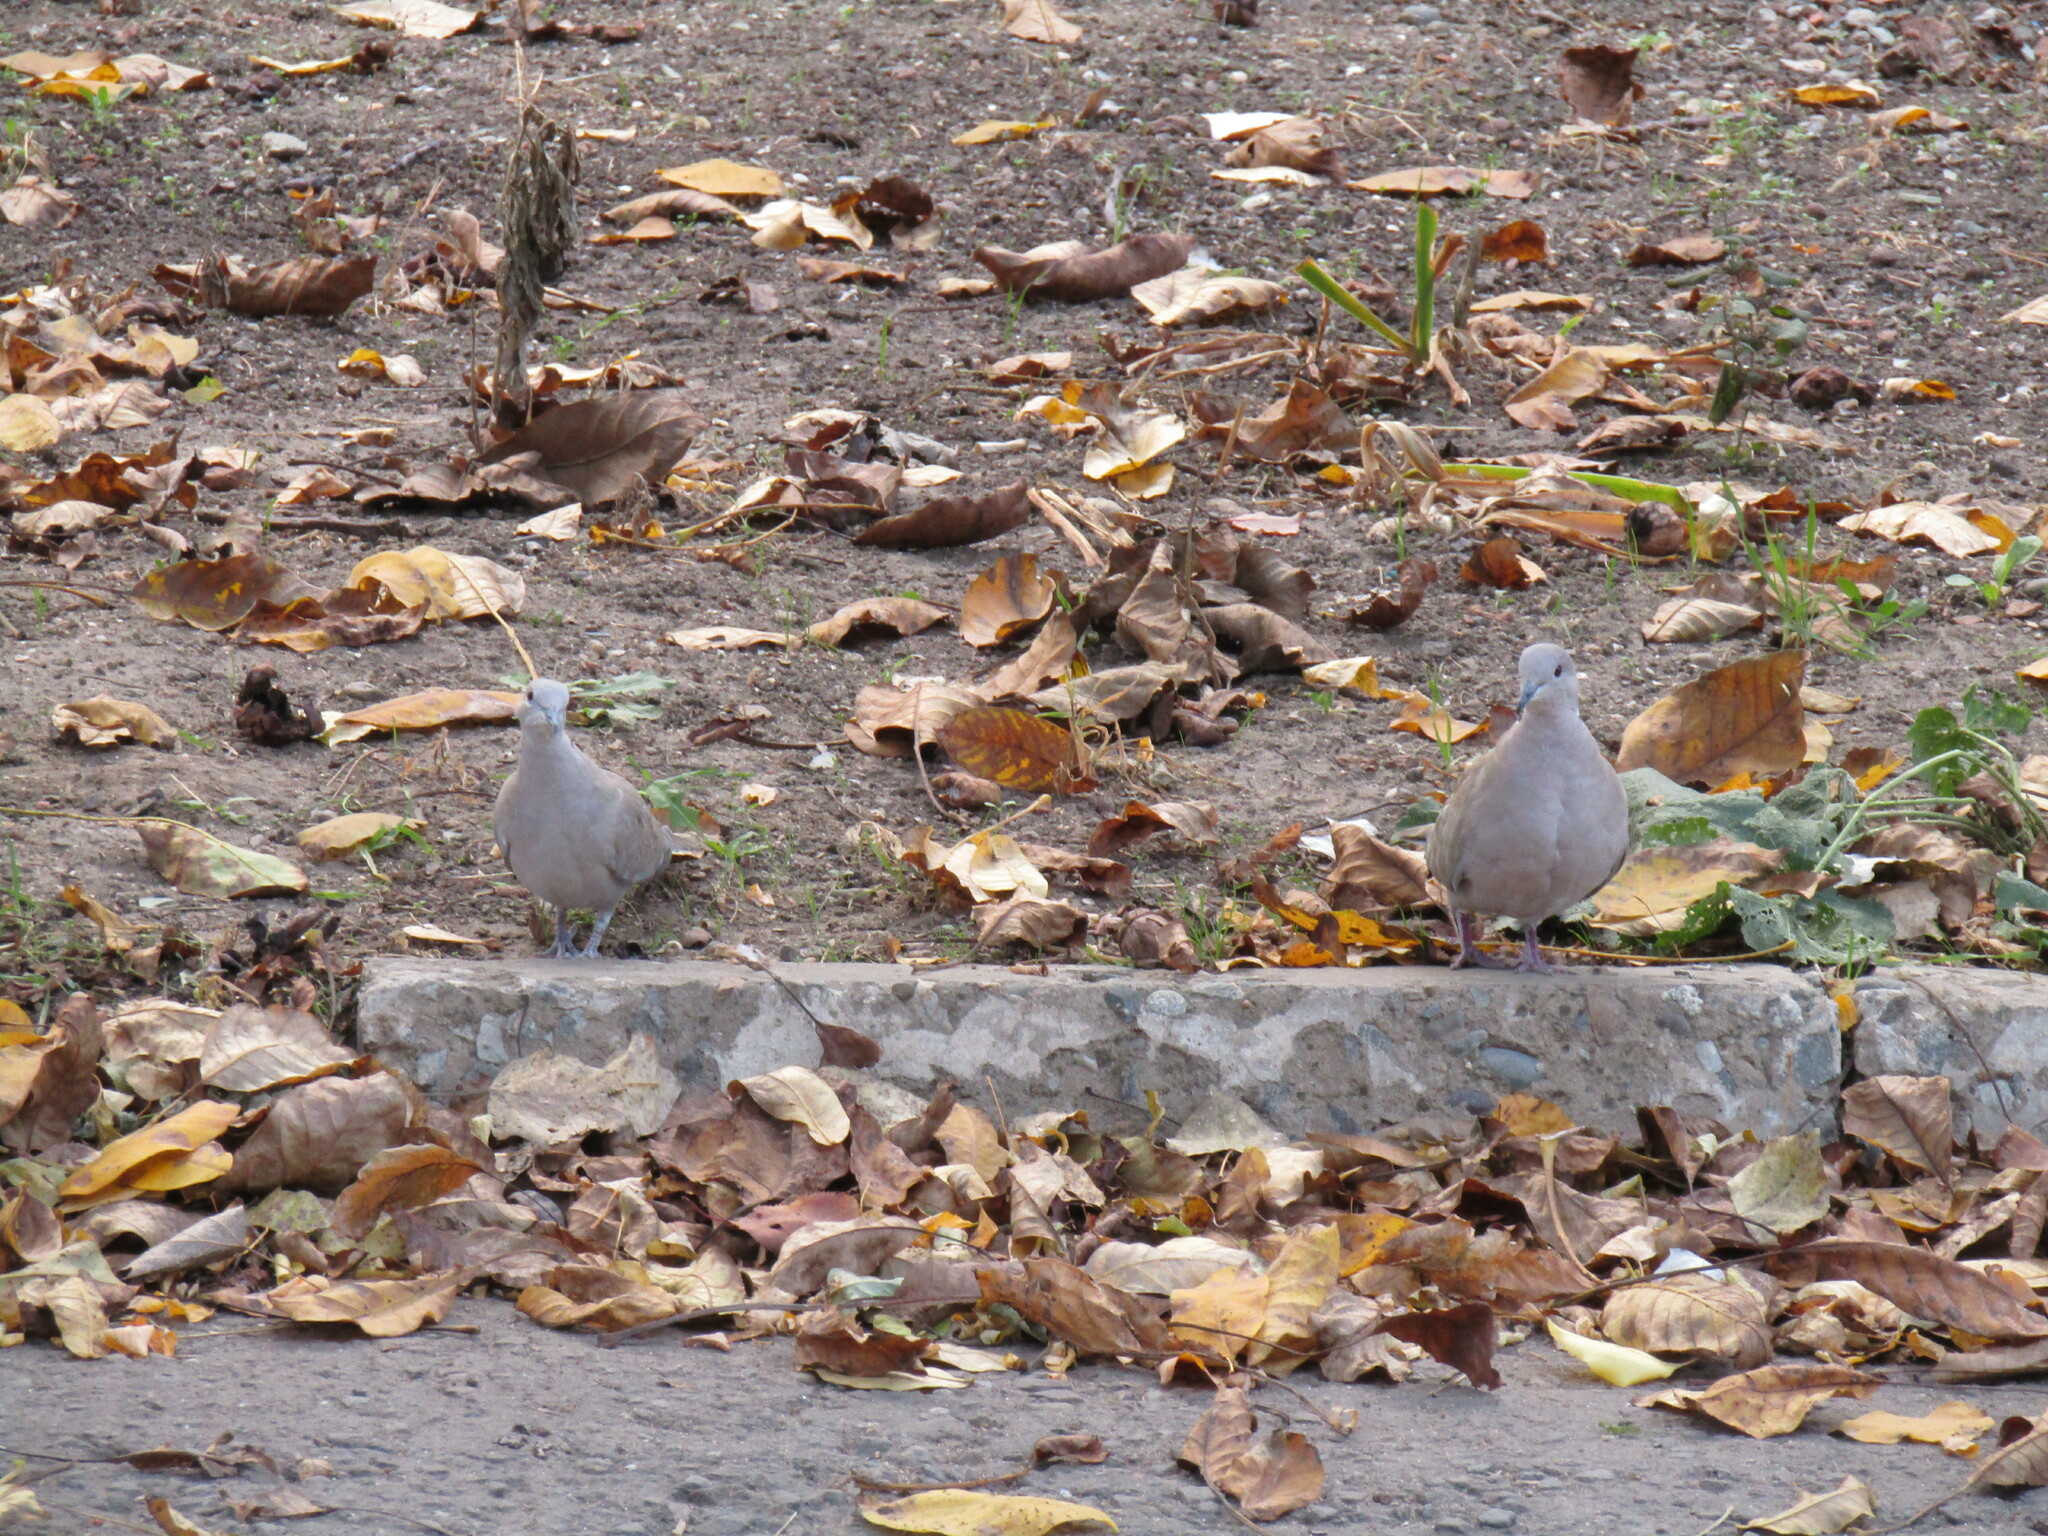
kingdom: Animalia
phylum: Chordata
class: Aves
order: Columbiformes
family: Columbidae
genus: Streptopelia
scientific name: Streptopelia decaocto
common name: Eurasian collared dove
